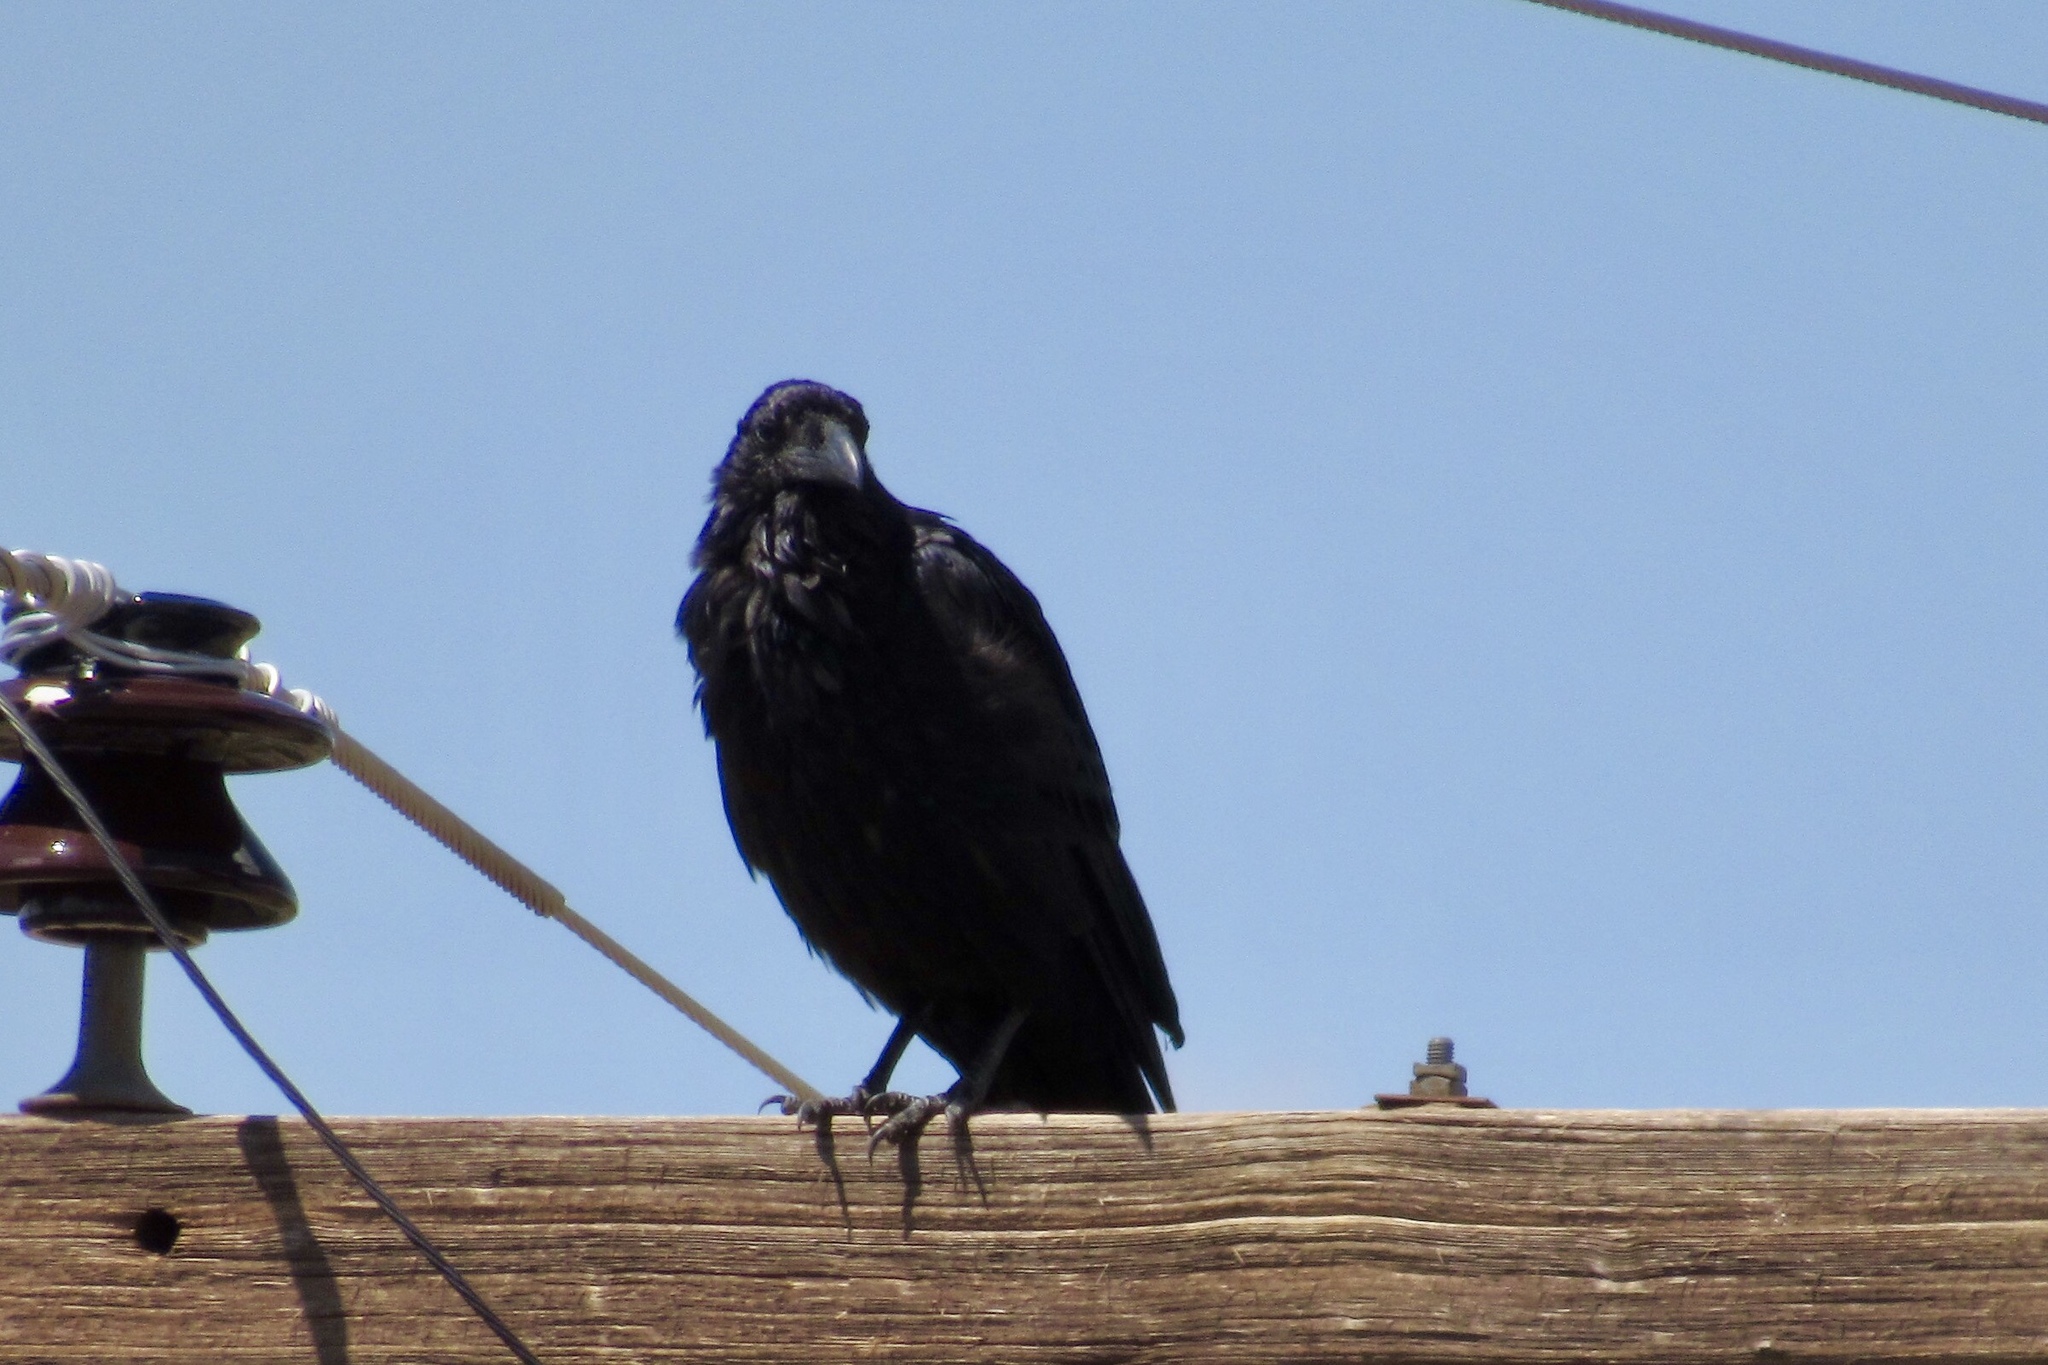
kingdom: Animalia
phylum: Chordata
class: Aves
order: Passeriformes
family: Corvidae
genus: Corvus
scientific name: Corvus corax
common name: Common raven
